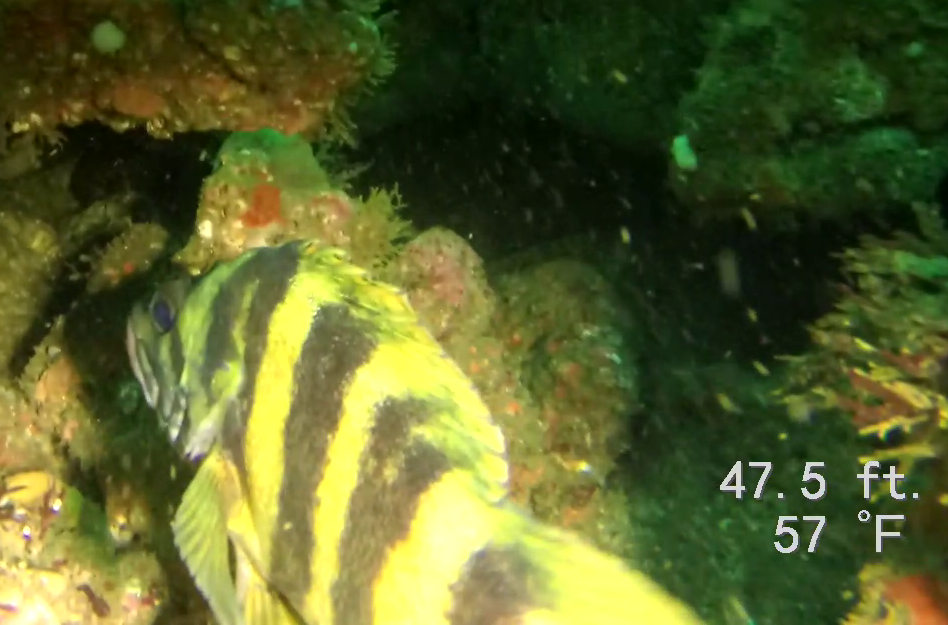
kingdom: Animalia
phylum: Chordata
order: Scorpaeniformes
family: Sebastidae
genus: Sebastes
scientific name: Sebastes serriceps
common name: Treefish
